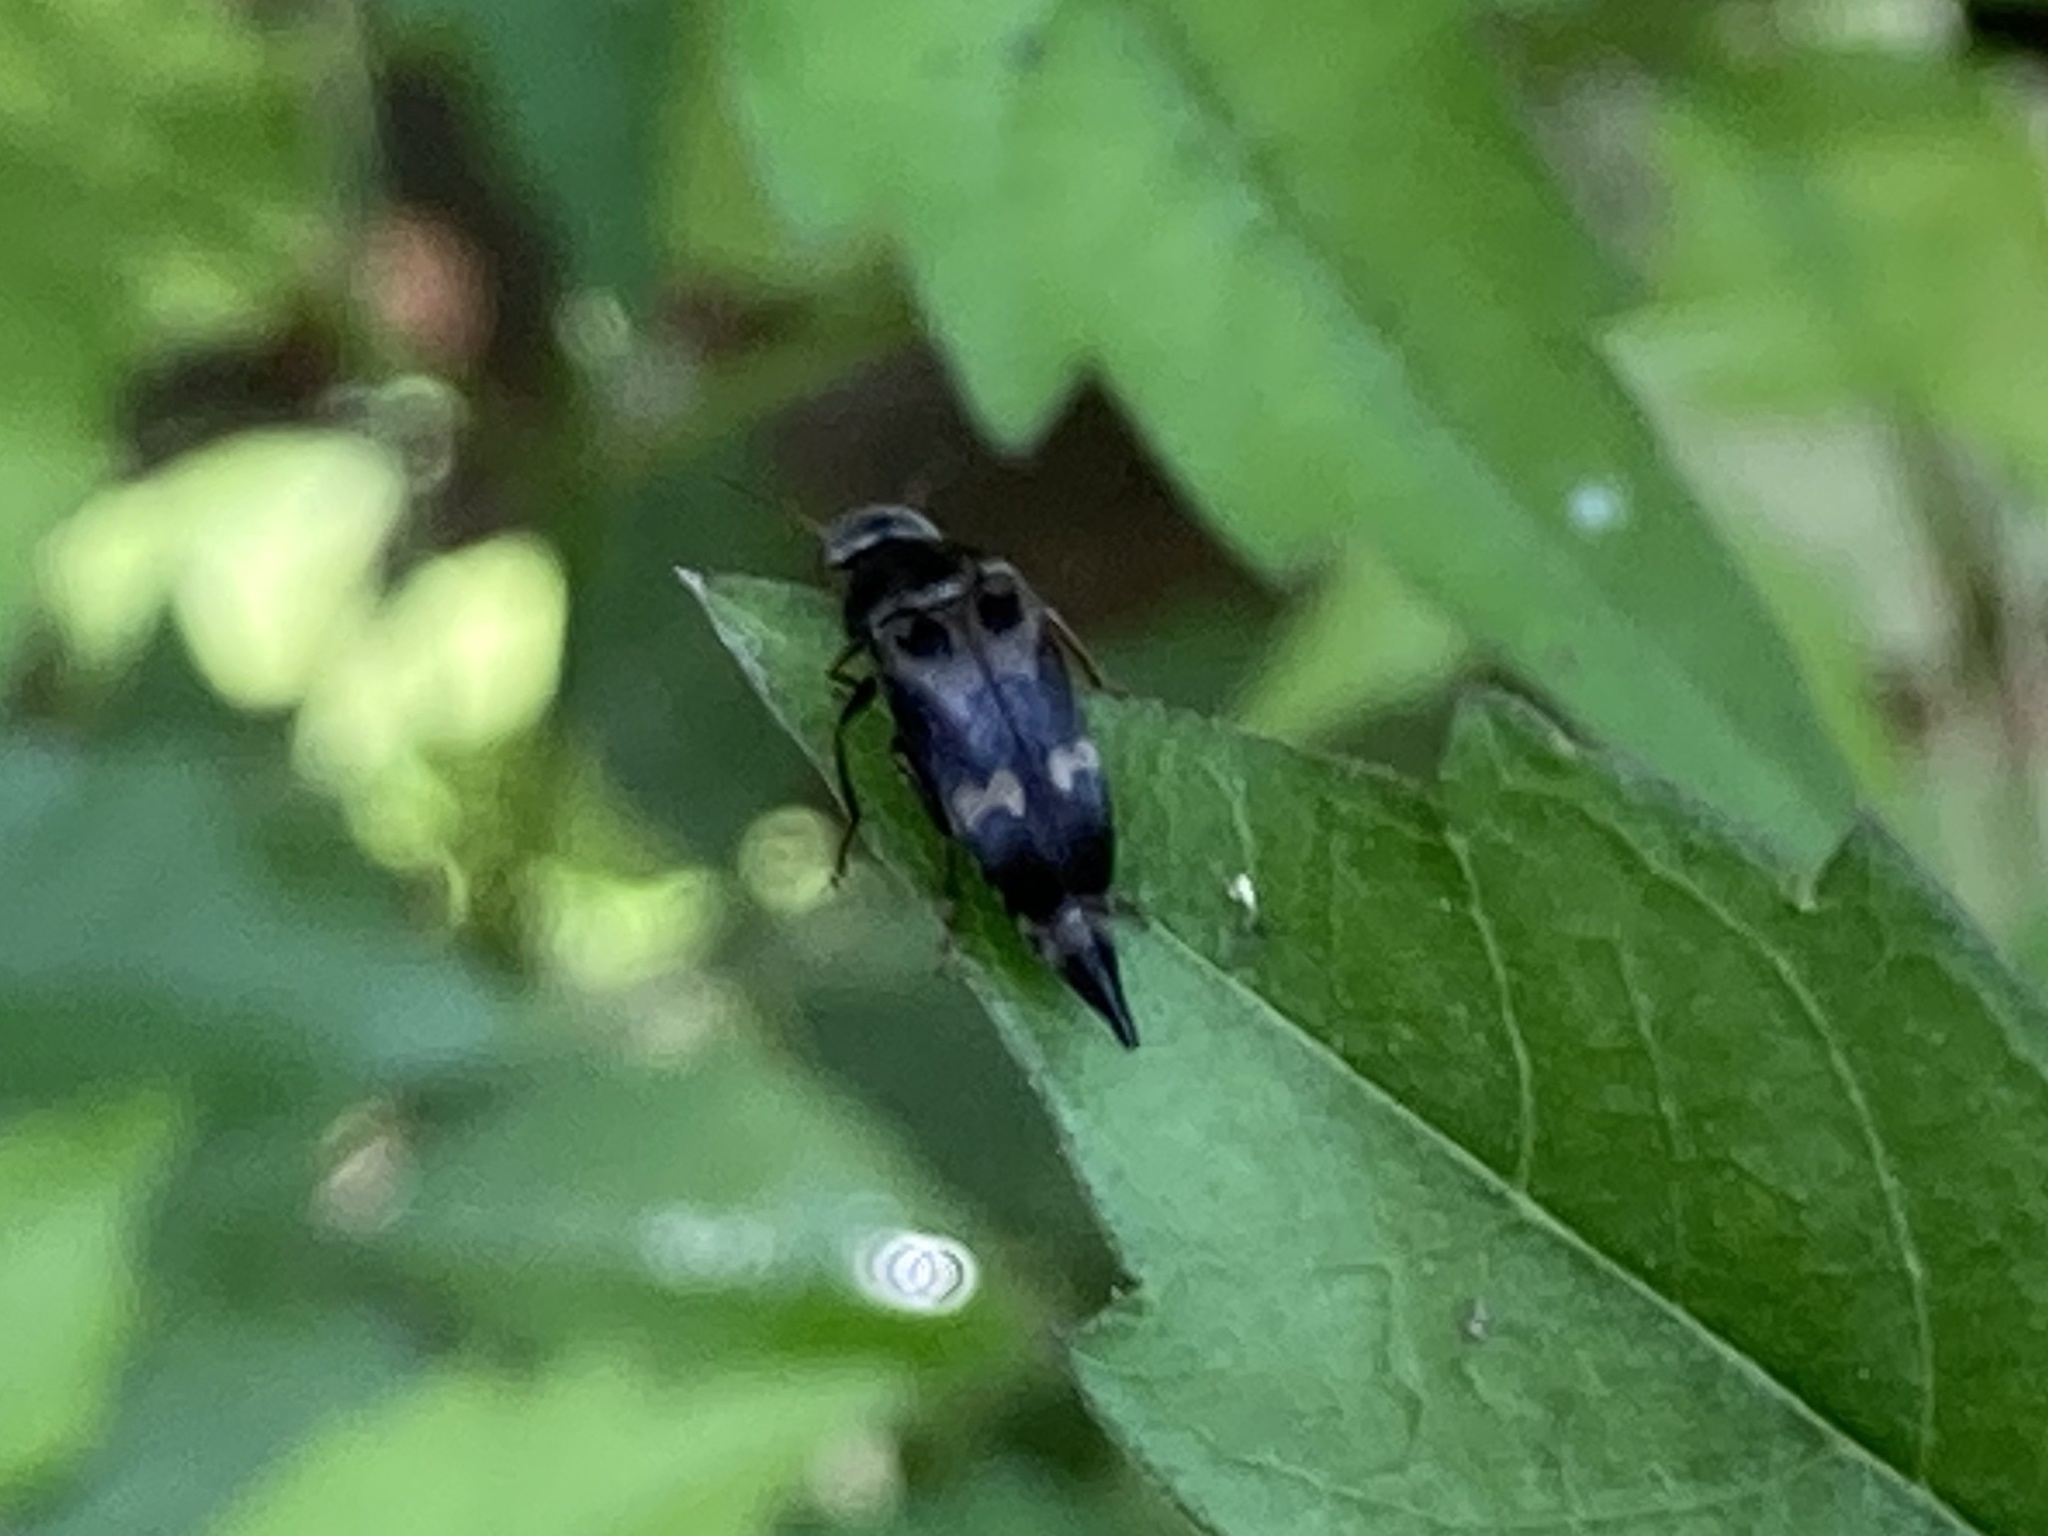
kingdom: Animalia
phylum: Arthropoda
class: Insecta
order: Coleoptera
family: Mordellidae
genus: Glipa
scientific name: Glipa oculata
